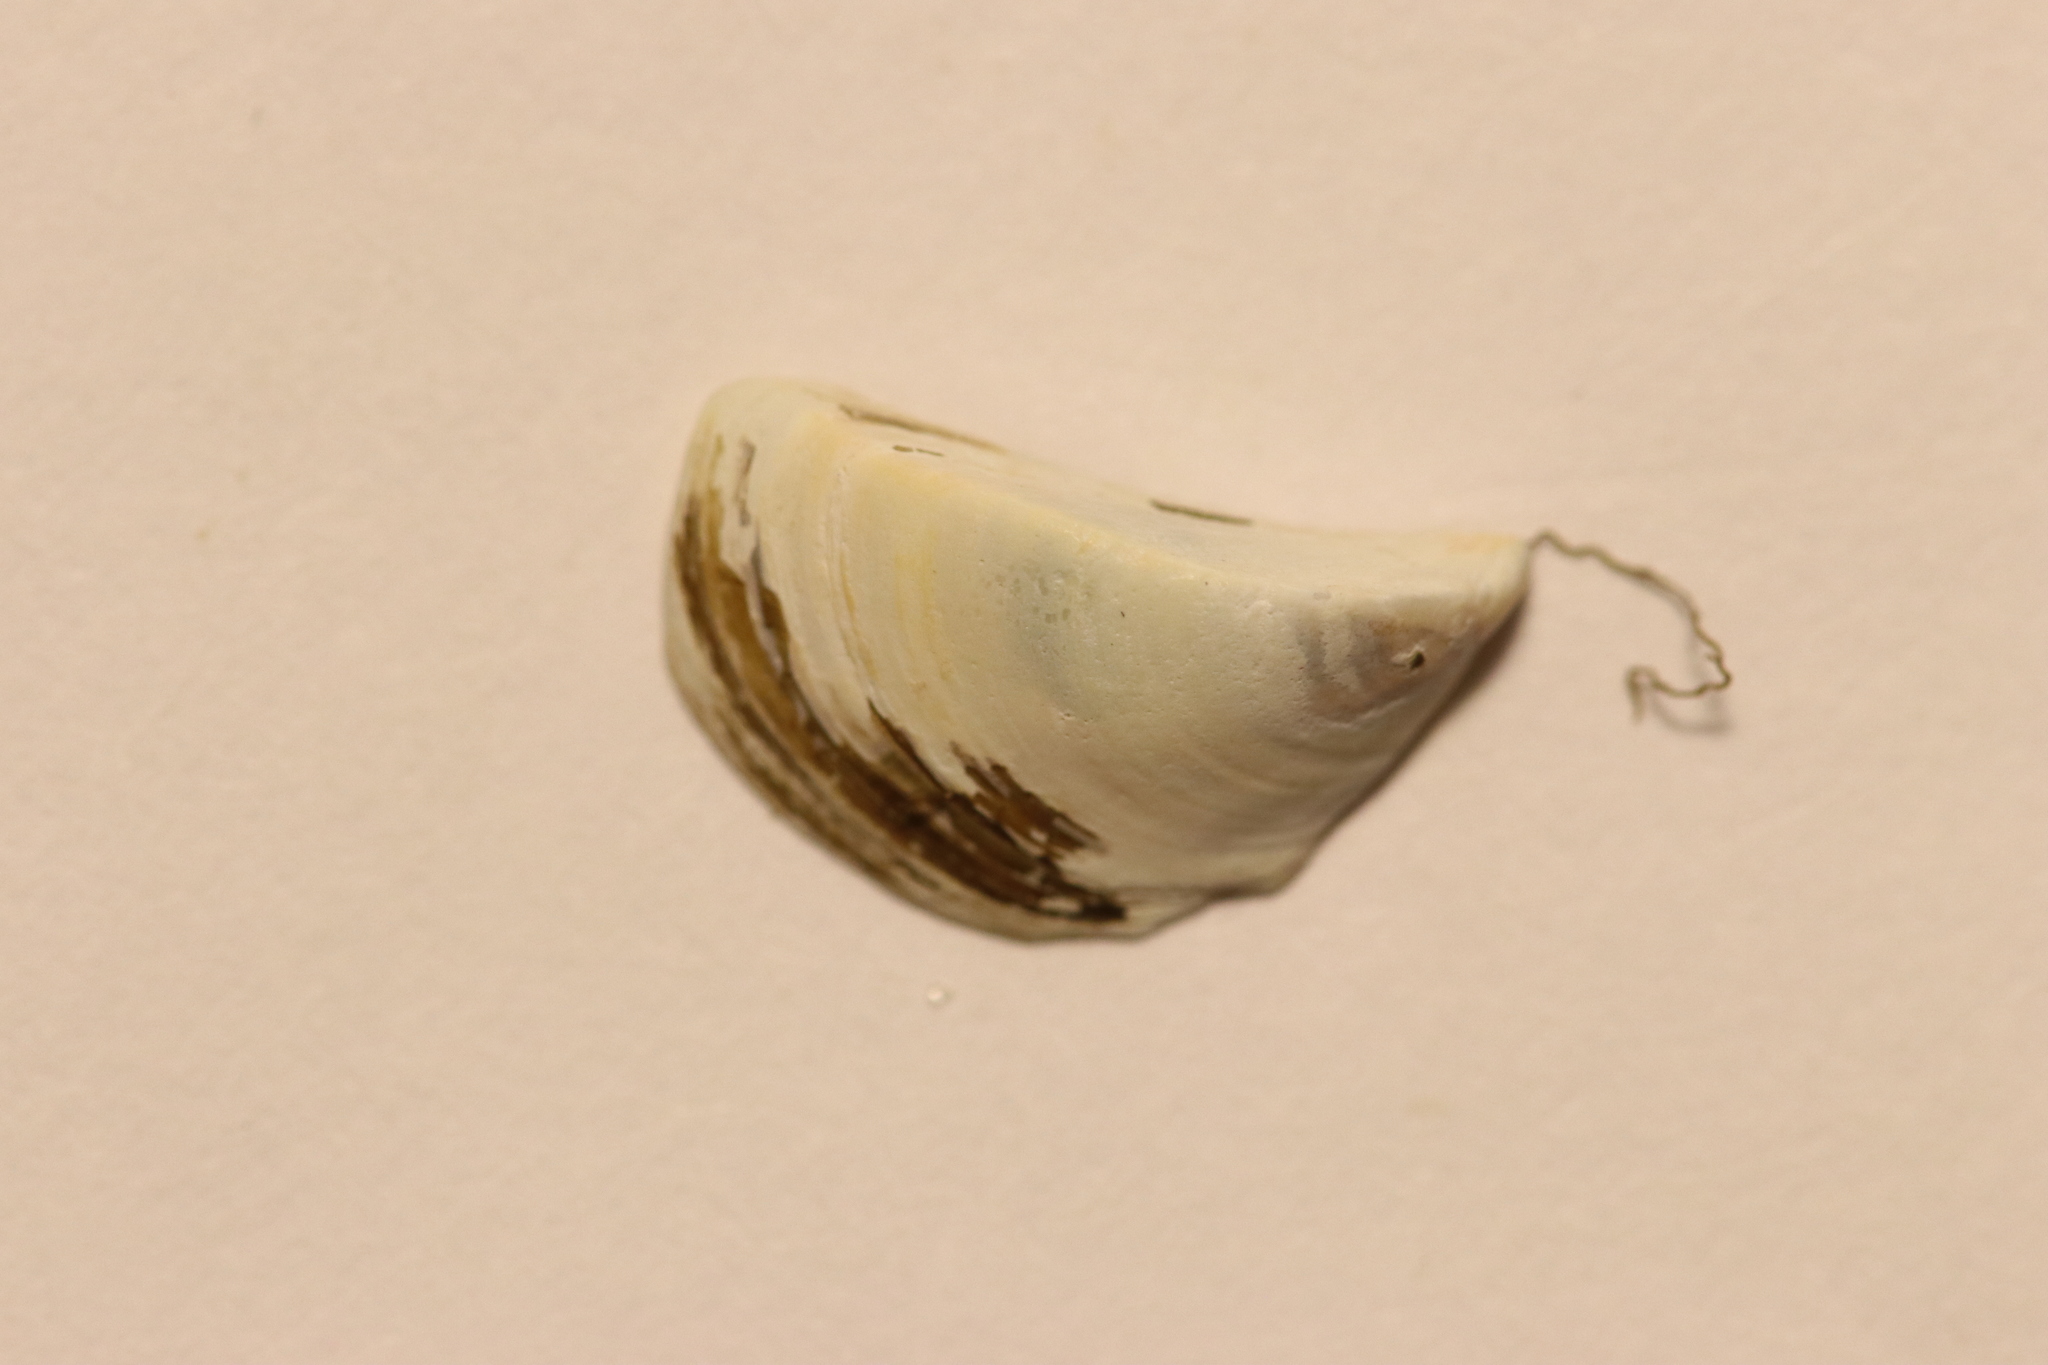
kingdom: Animalia
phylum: Mollusca
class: Bivalvia
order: Myida
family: Dreissenidae
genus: Dreissena
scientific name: Dreissena polymorpha
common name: Zebra mussel
